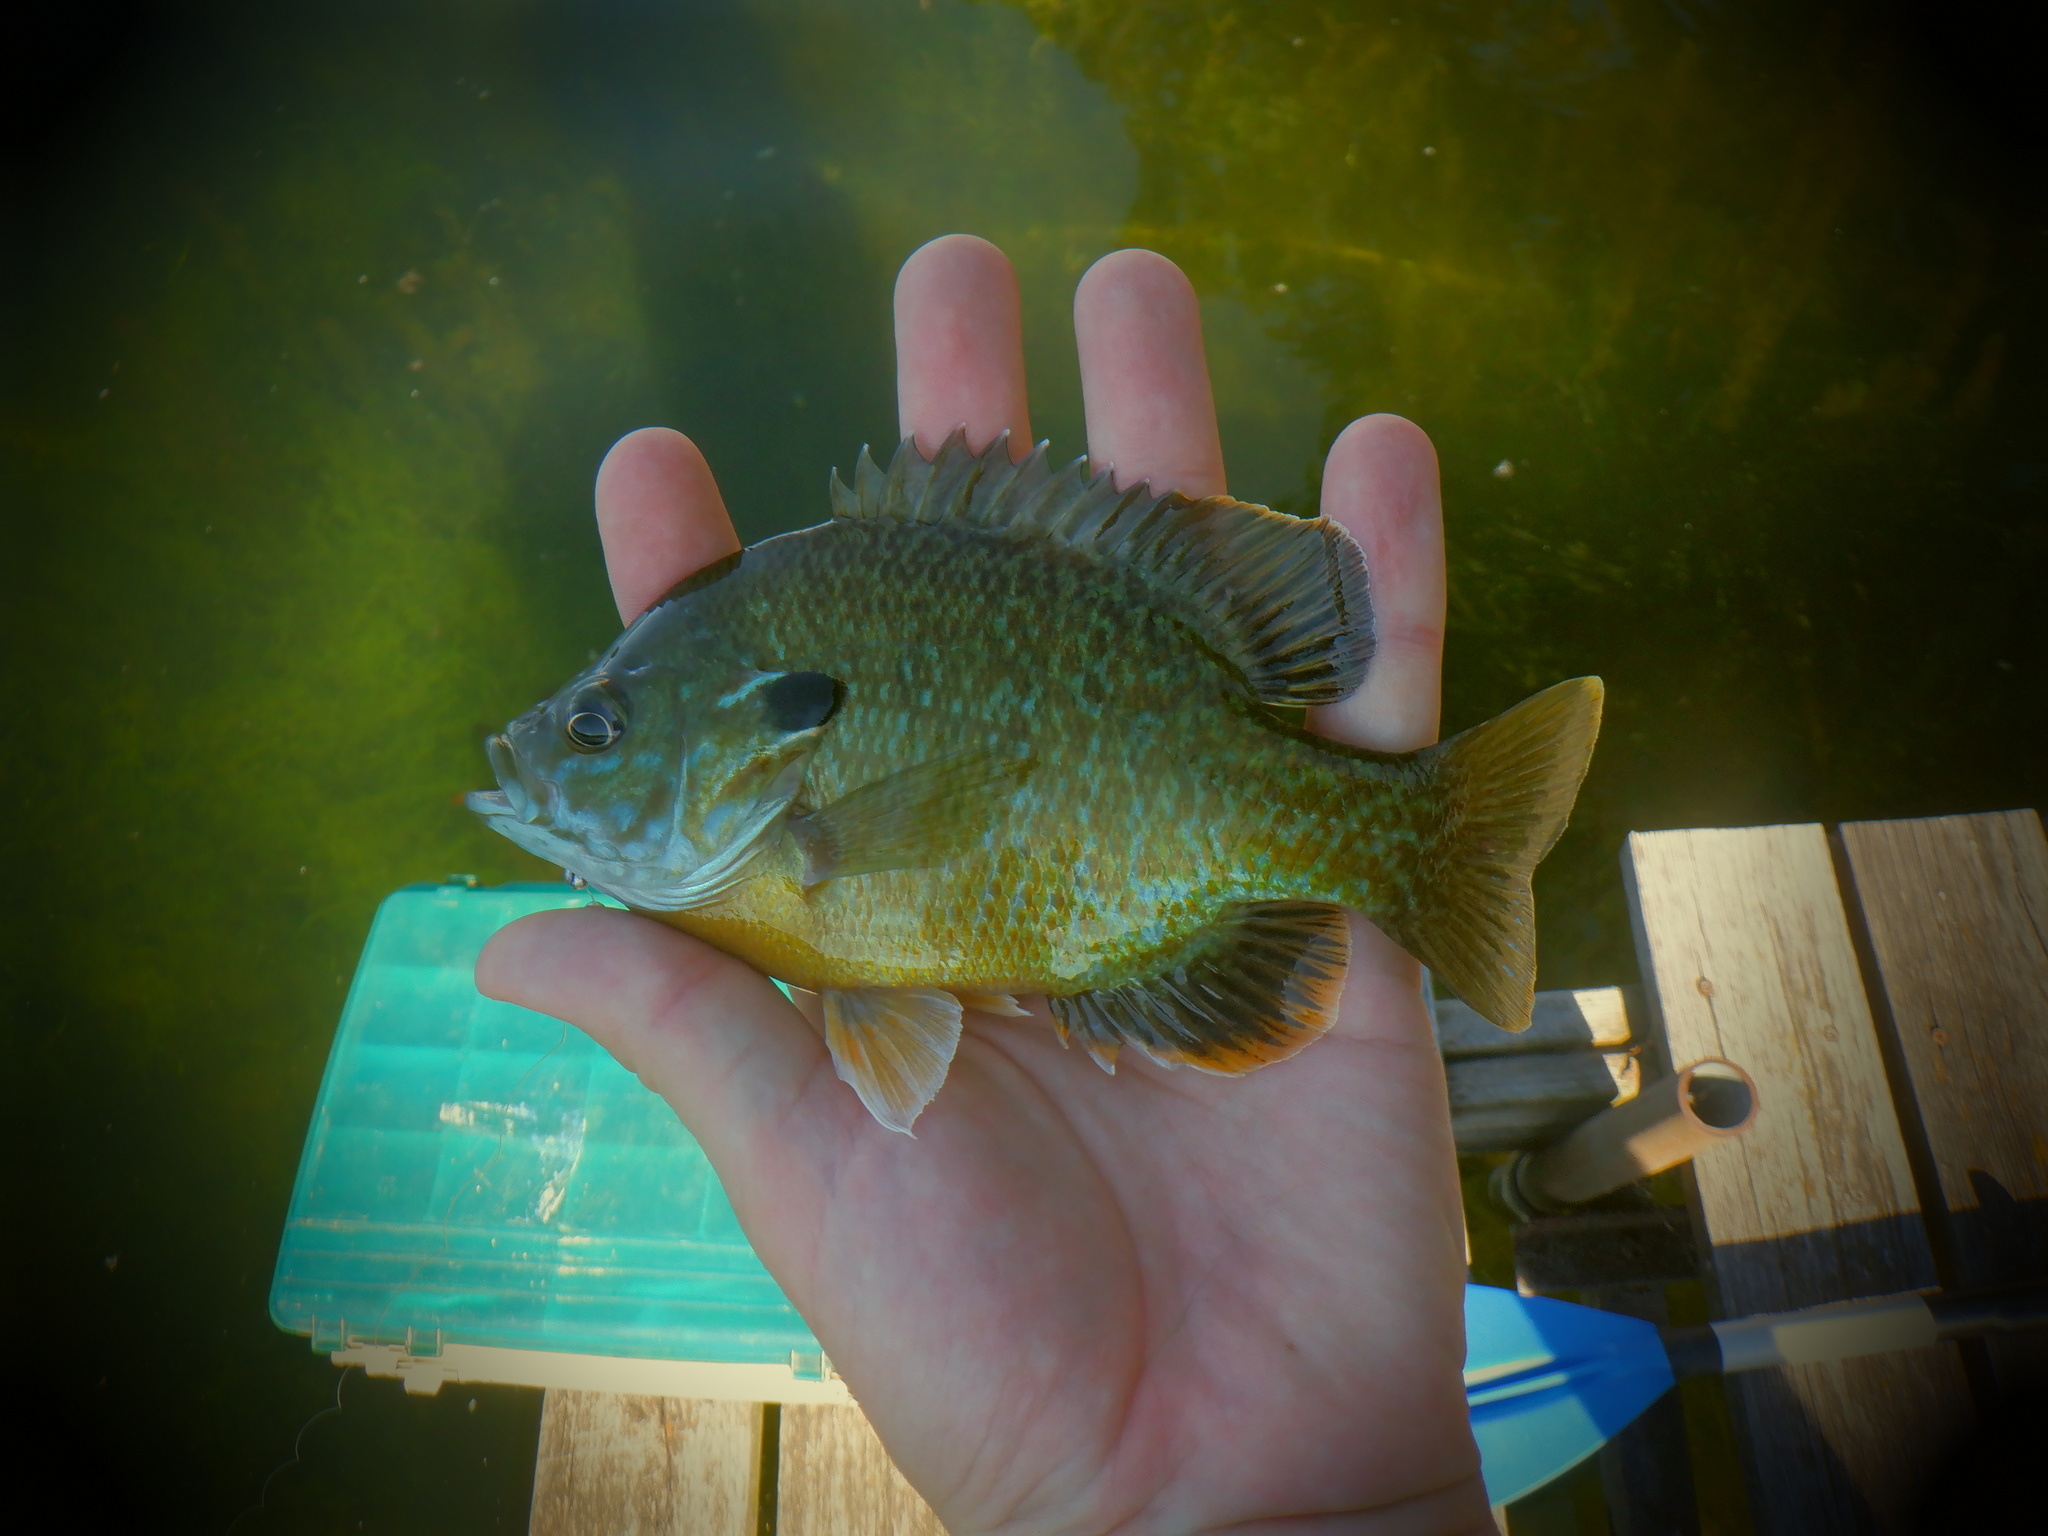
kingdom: Animalia
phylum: Chordata
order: Perciformes
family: Centrarchidae
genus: Lepomis
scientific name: Lepomis
